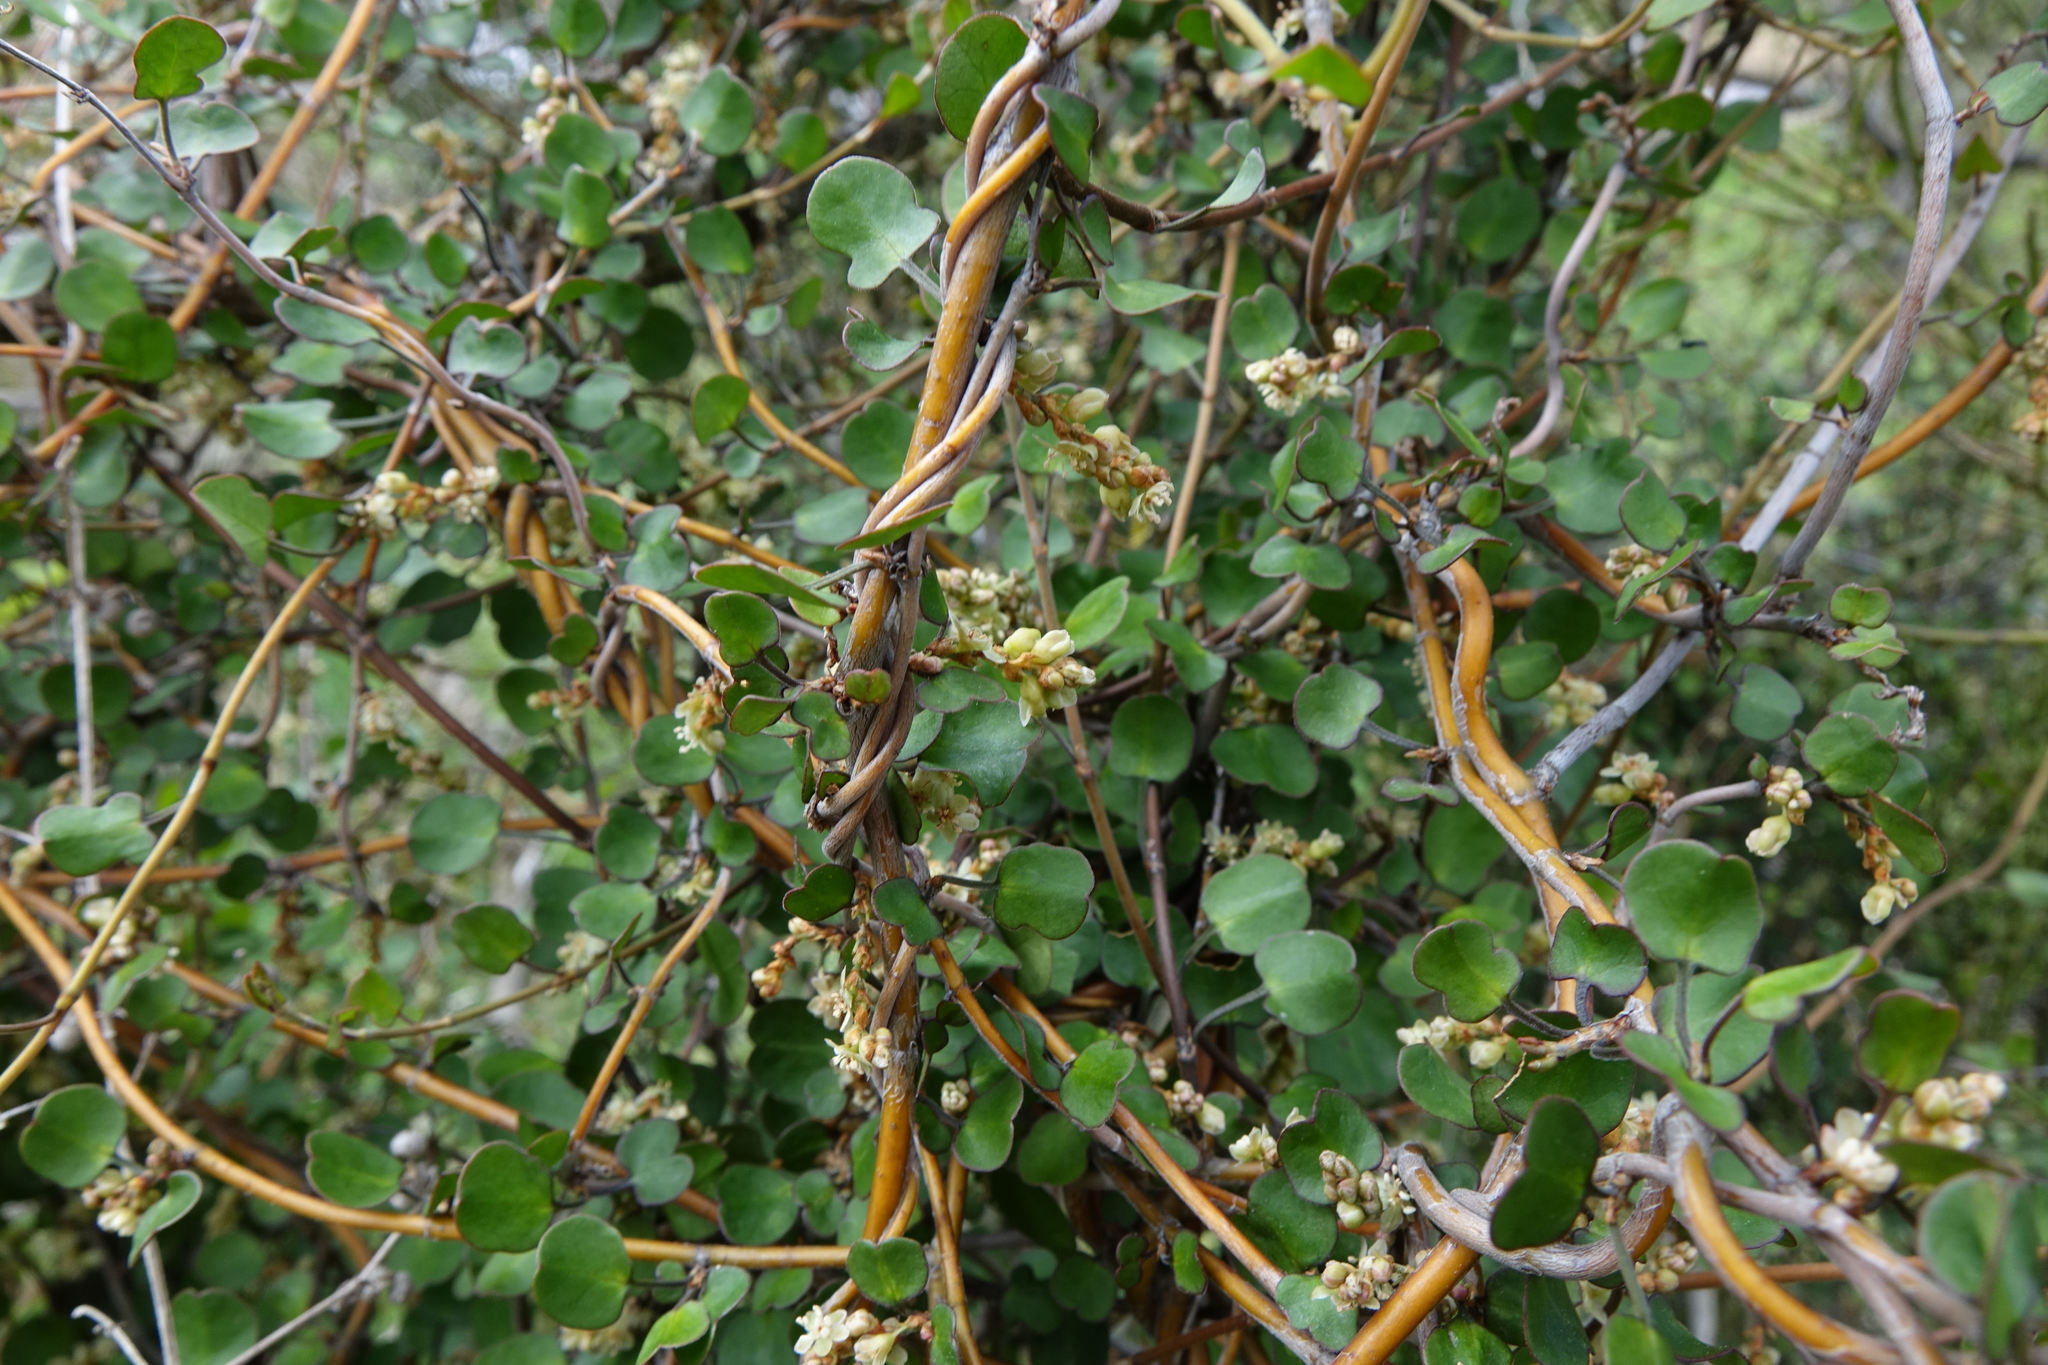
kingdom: Plantae
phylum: Tracheophyta
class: Magnoliopsida
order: Caryophyllales
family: Polygonaceae
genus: Muehlenbeckia
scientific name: Muehlenbeckia complexa
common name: Wireplant
